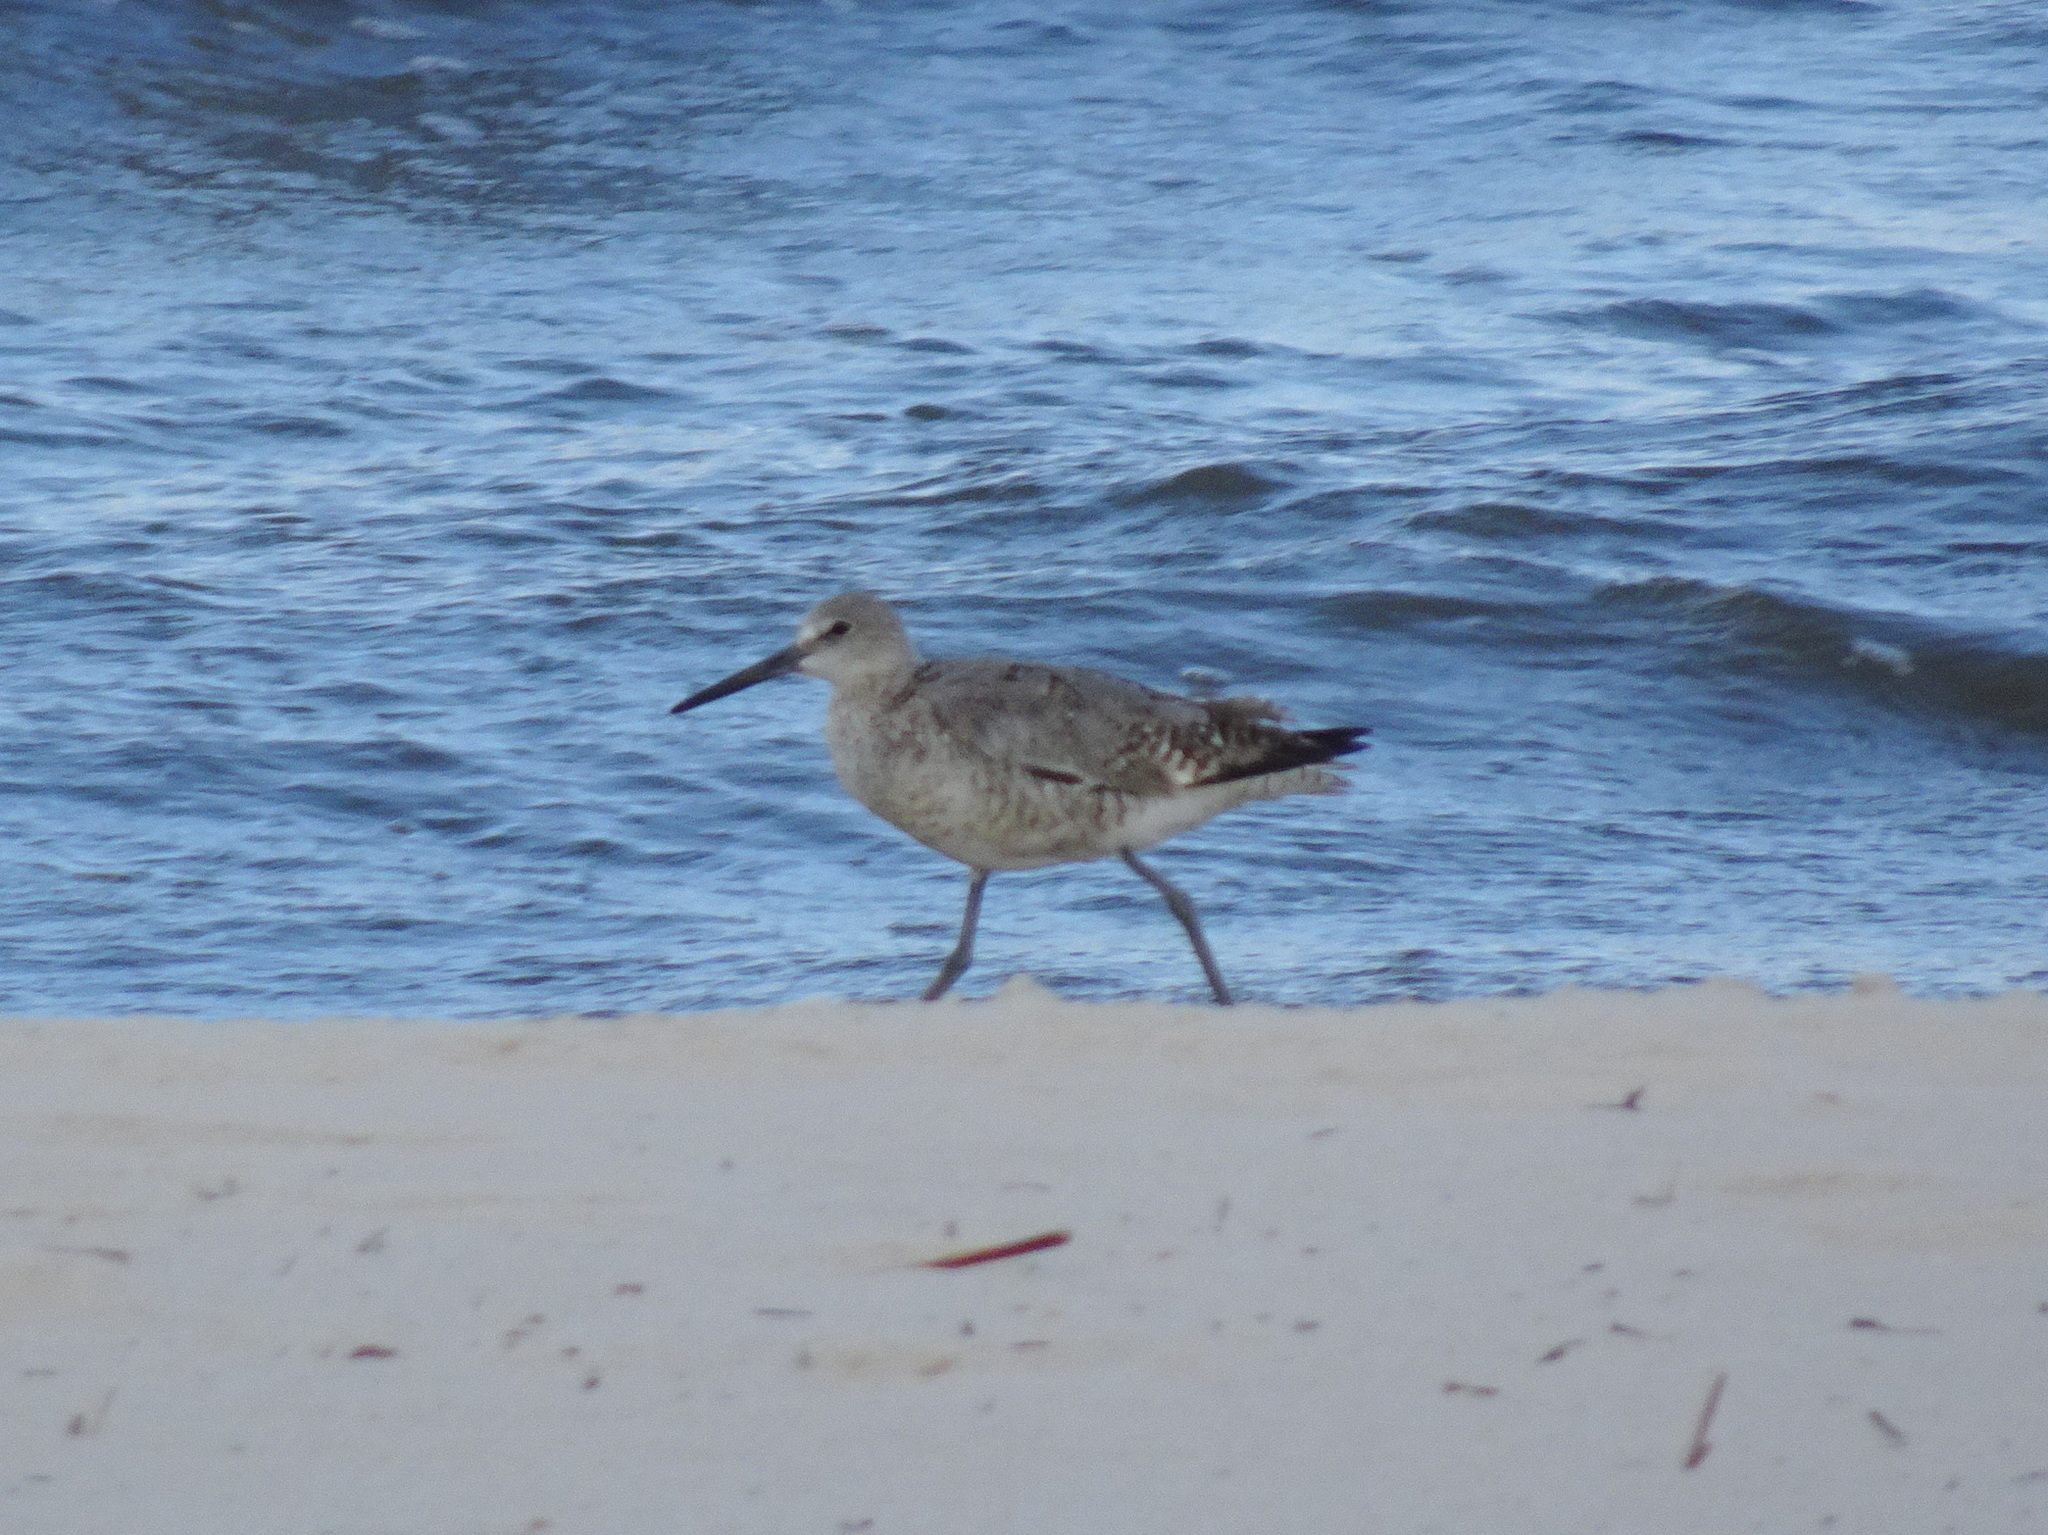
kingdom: Animalia
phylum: Chordata
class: Aves
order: Charadriiformes
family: Scolopacidae
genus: Tringa
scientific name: Tringa semipalmata
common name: Willet
